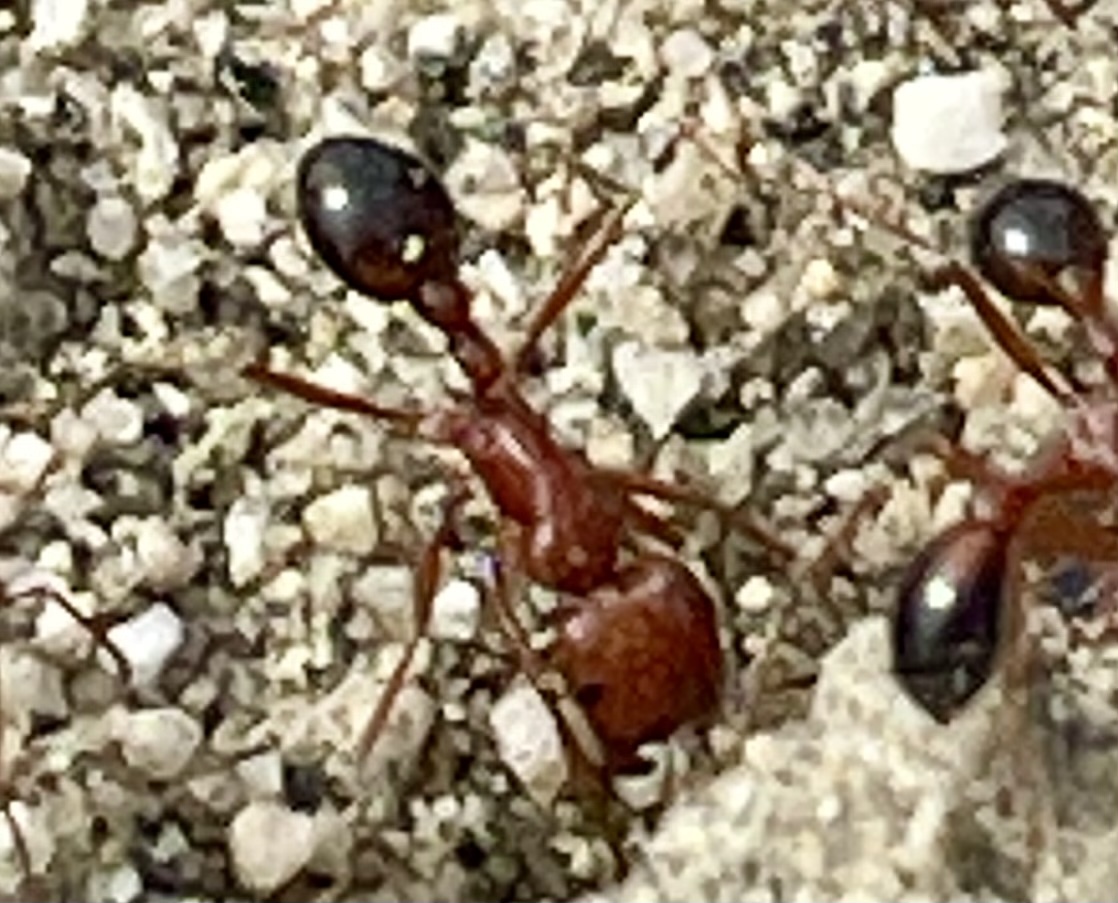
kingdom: Animalia
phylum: Arthropoda
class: Insecta
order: Hymenoptera
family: Formicidae
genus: Pogonomyrmex
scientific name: Pogonomyrmex californicus
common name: California harvester ant
